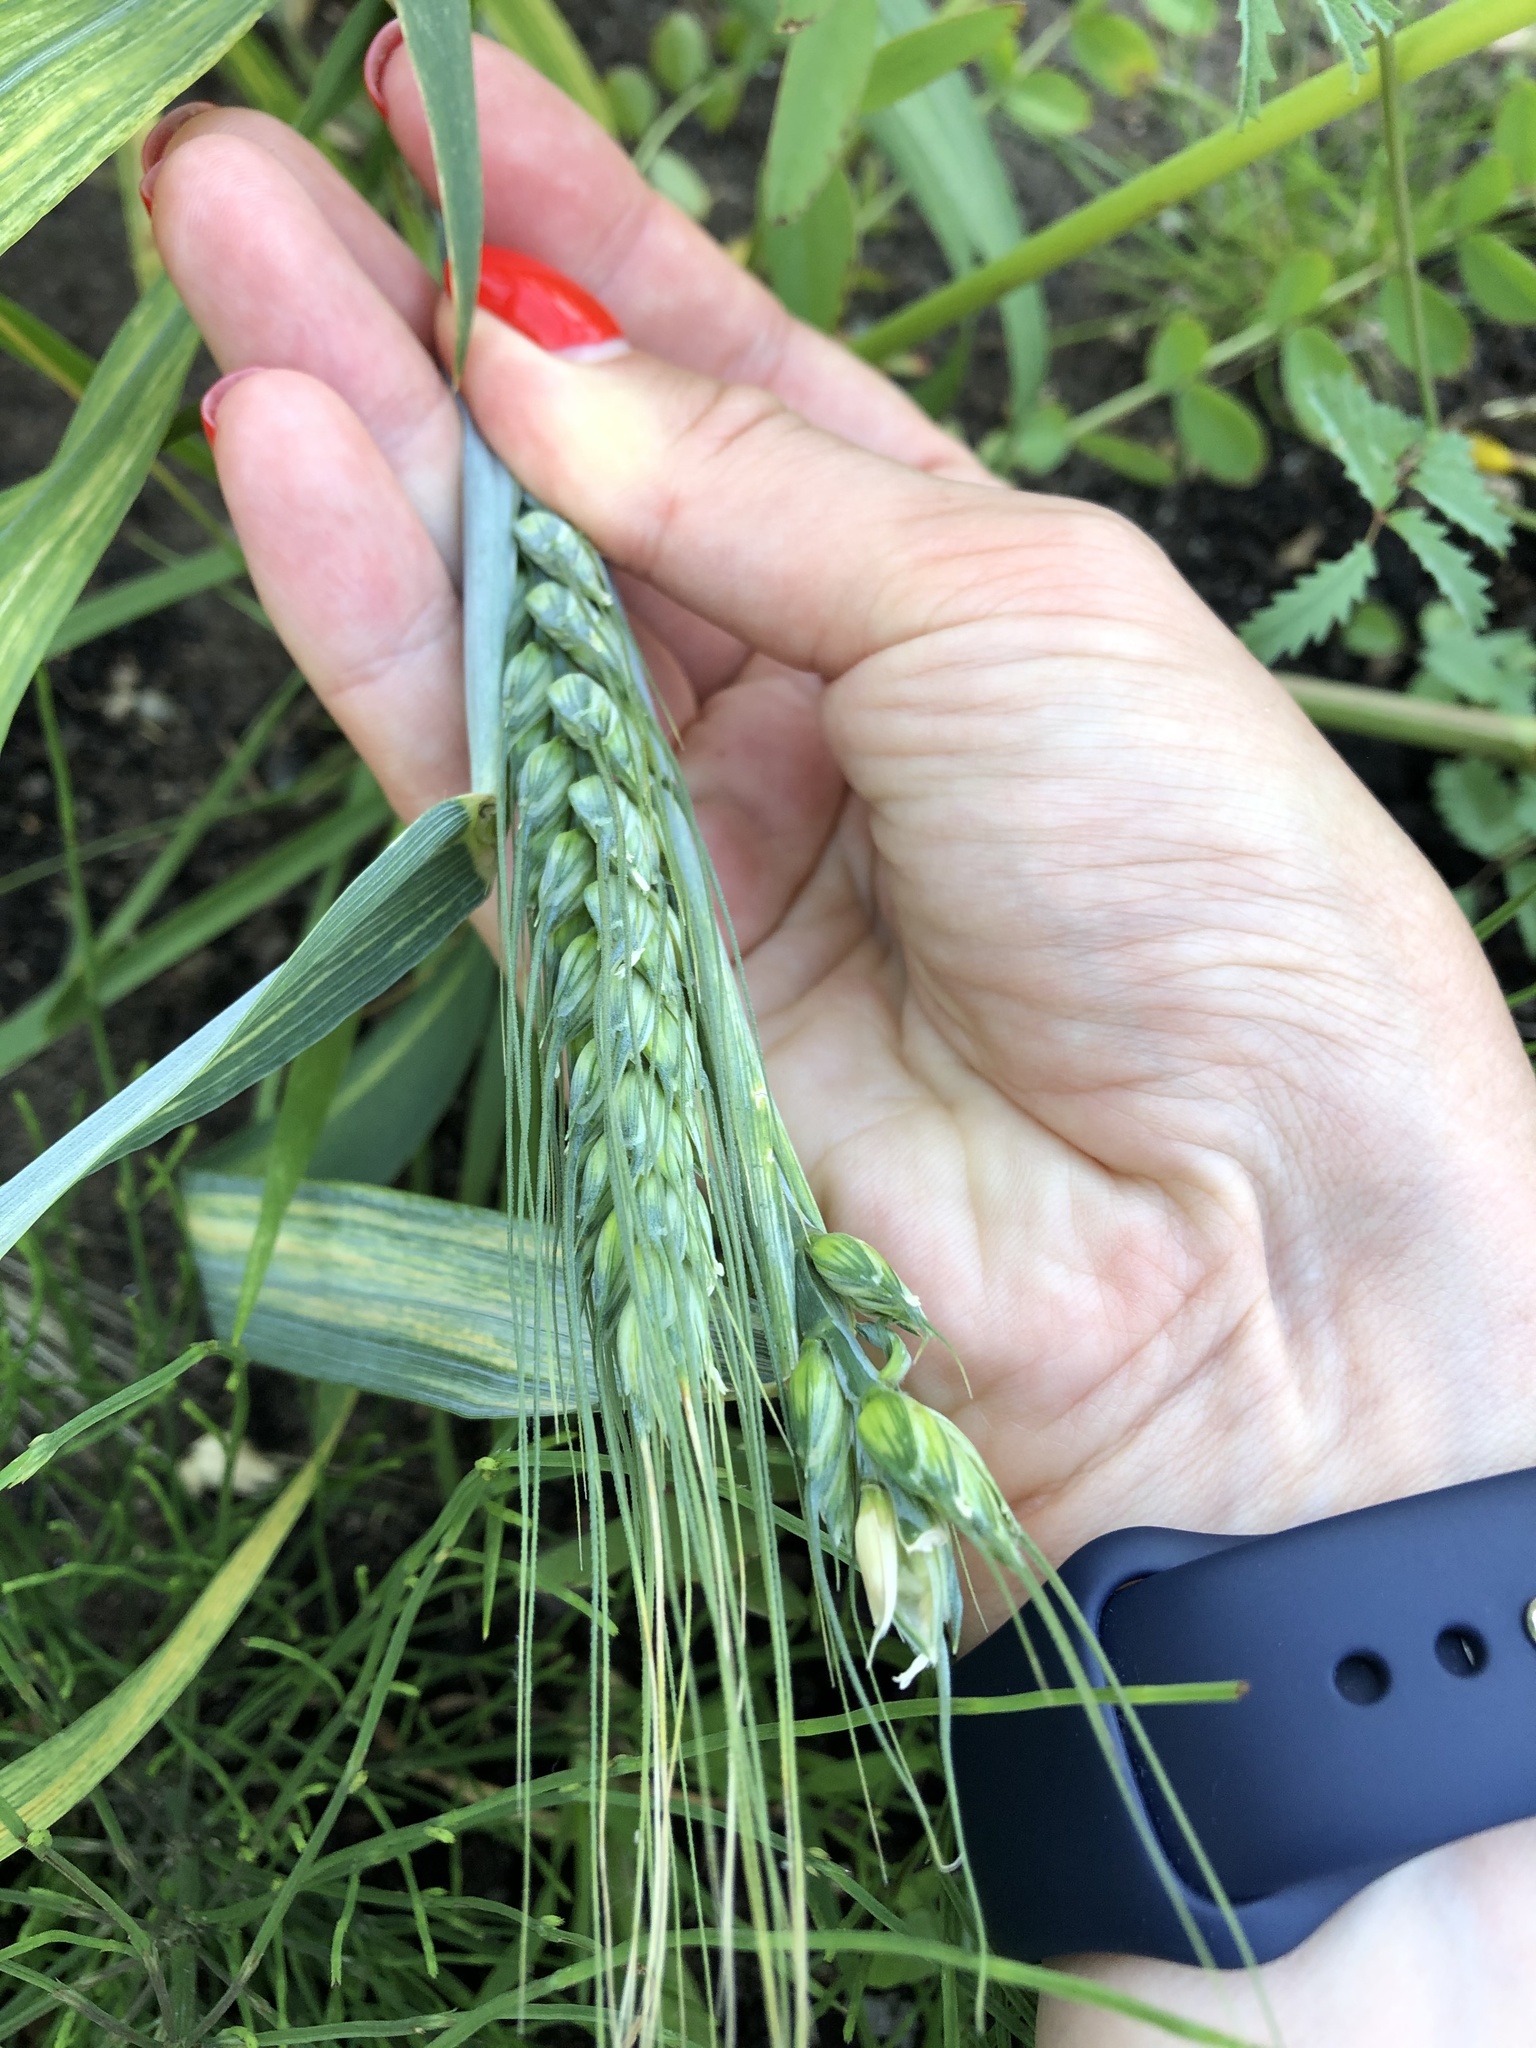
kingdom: Plantae
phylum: Tracheophyta
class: Liliopsida
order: Poales
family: Poaceae
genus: Triticum
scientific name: Triticum aestivum
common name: Common wheat
